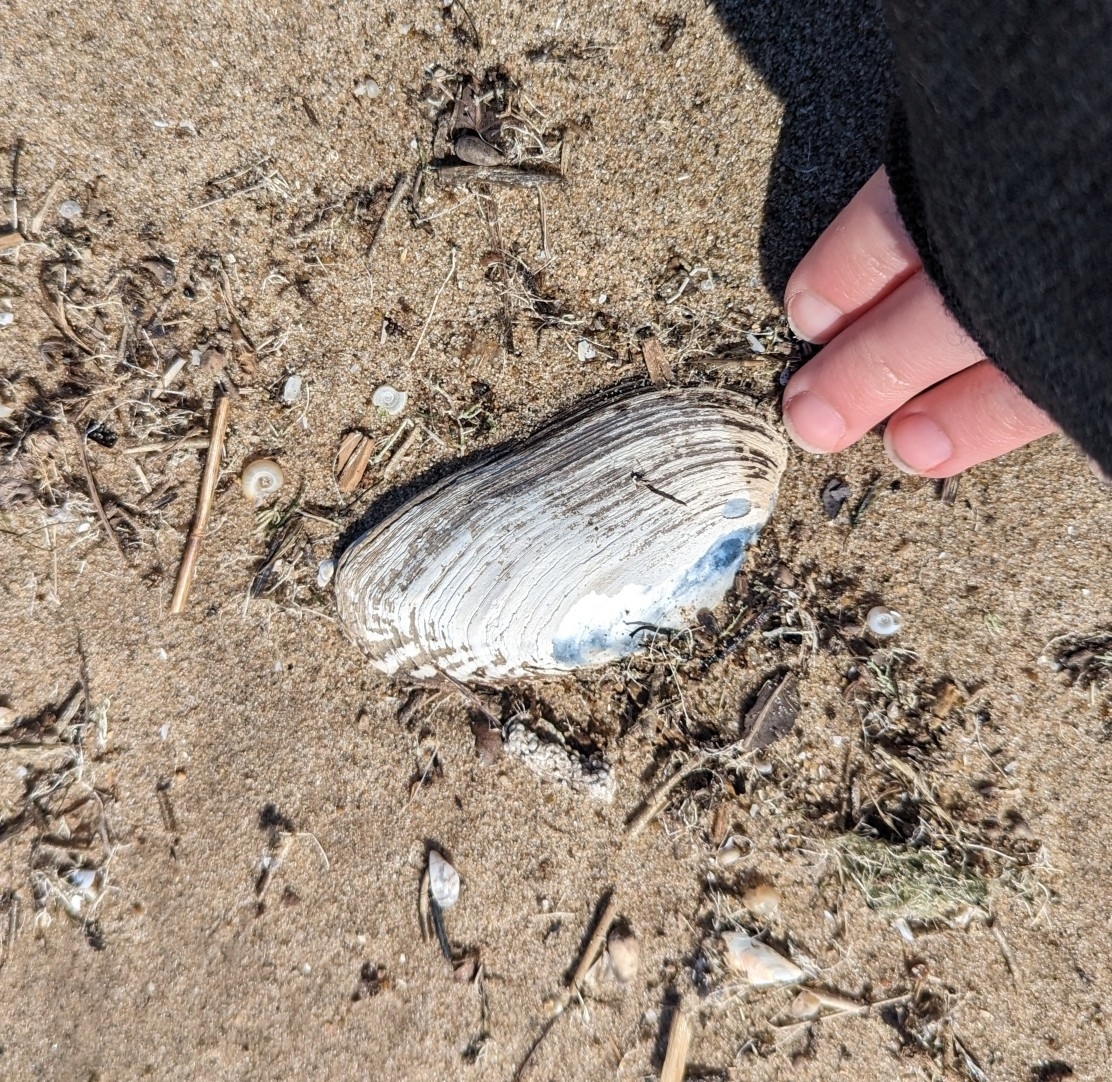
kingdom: Animalia
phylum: Mollusca
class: Bivalvia
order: Unionida
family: Unionidae
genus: Lasmigona
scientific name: Lasmigona costata
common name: Flutedshell
